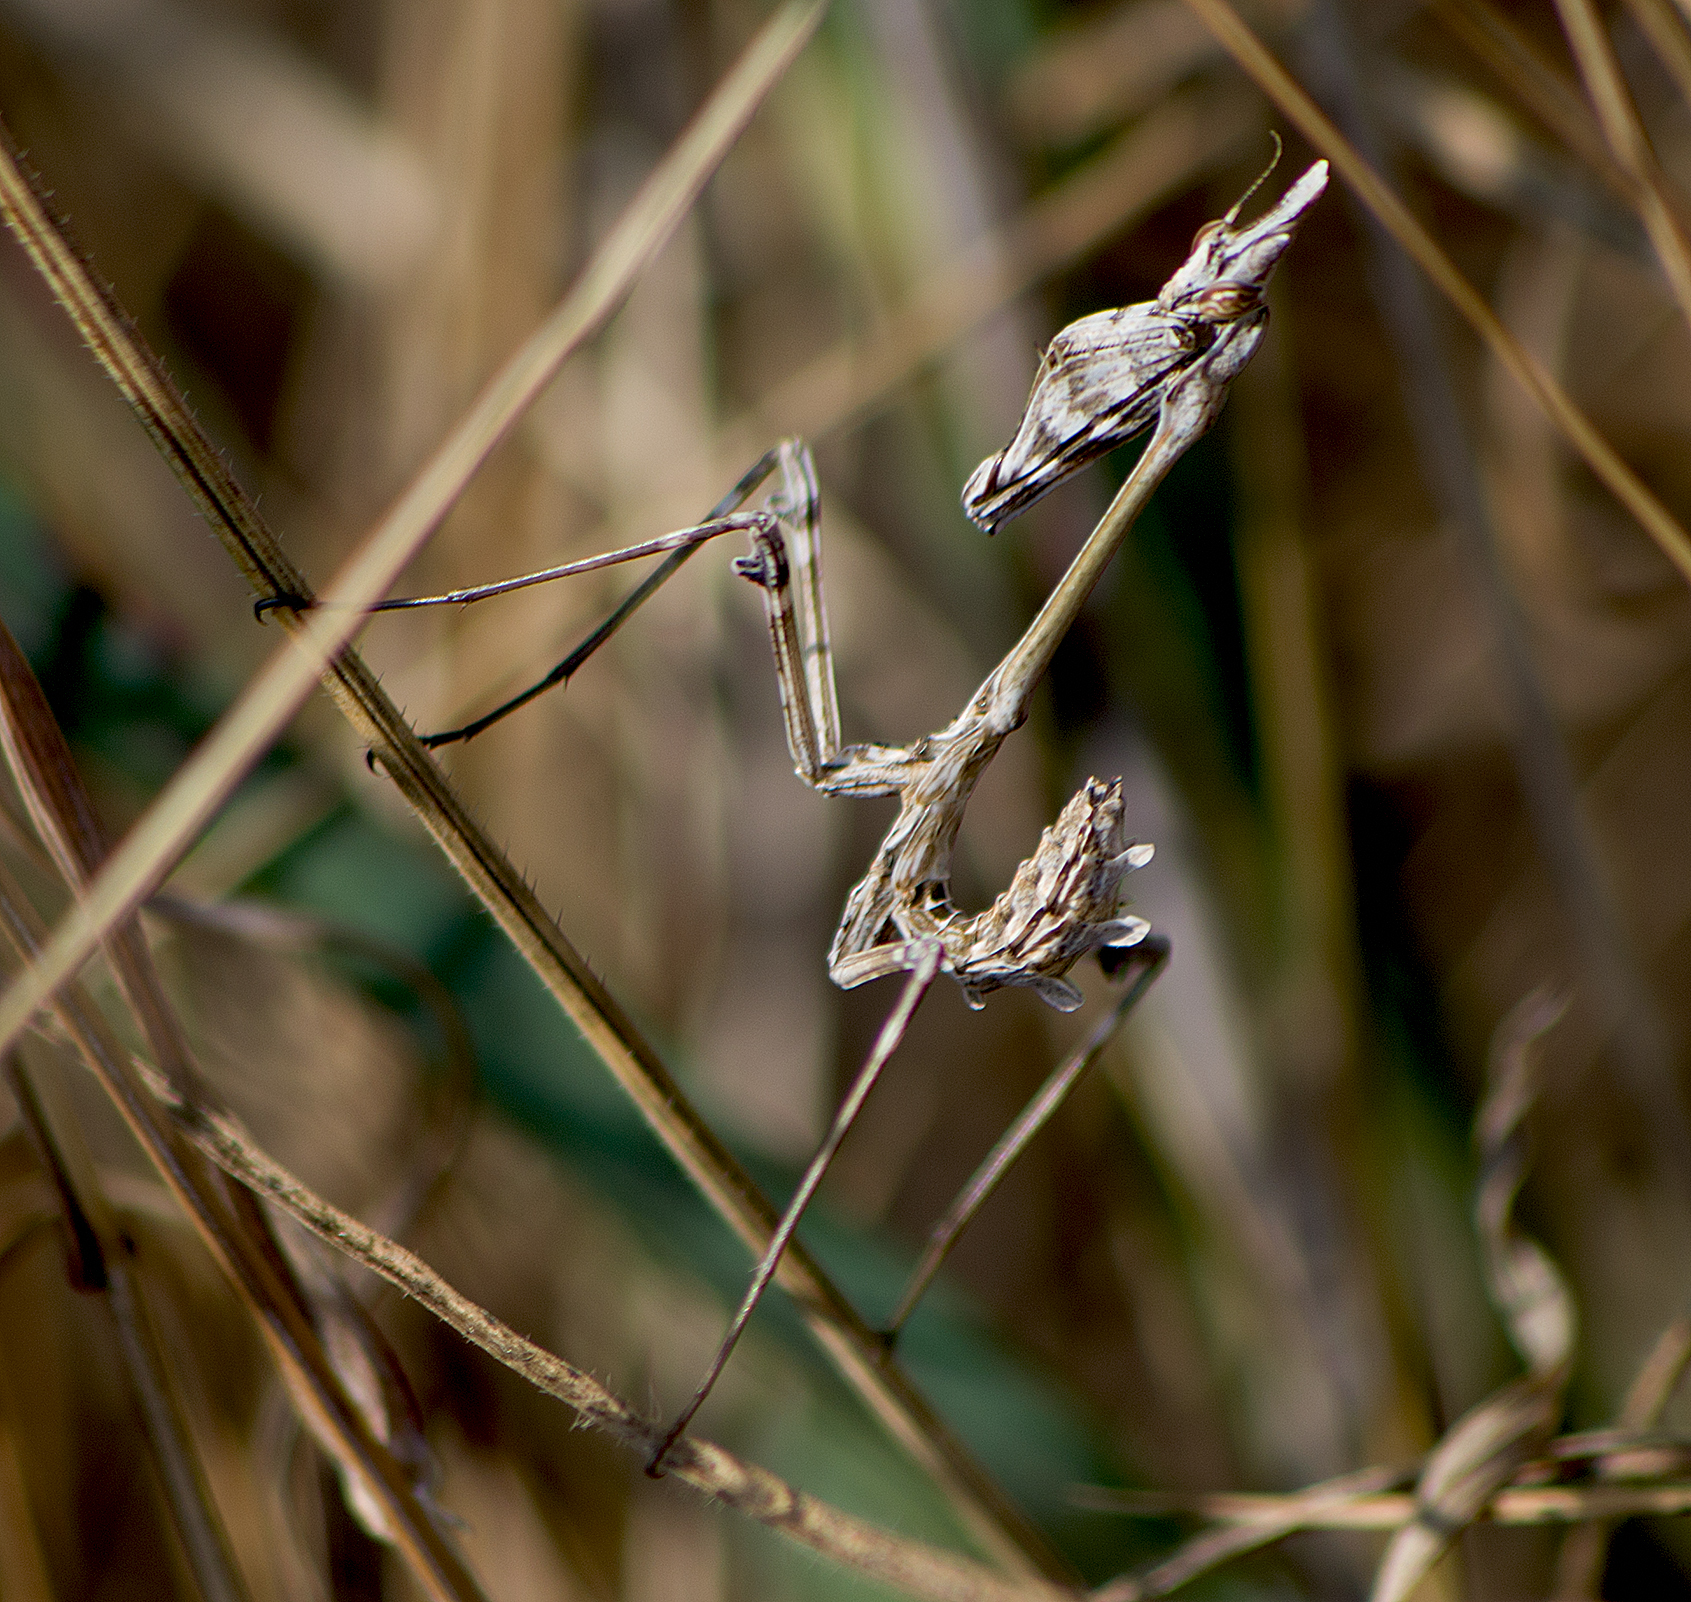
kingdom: Animalia
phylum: Arthropoda
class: Insecta
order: Mantodea
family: Empusidae
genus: Empusa
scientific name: Empusa fasciata
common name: Devil's mare
